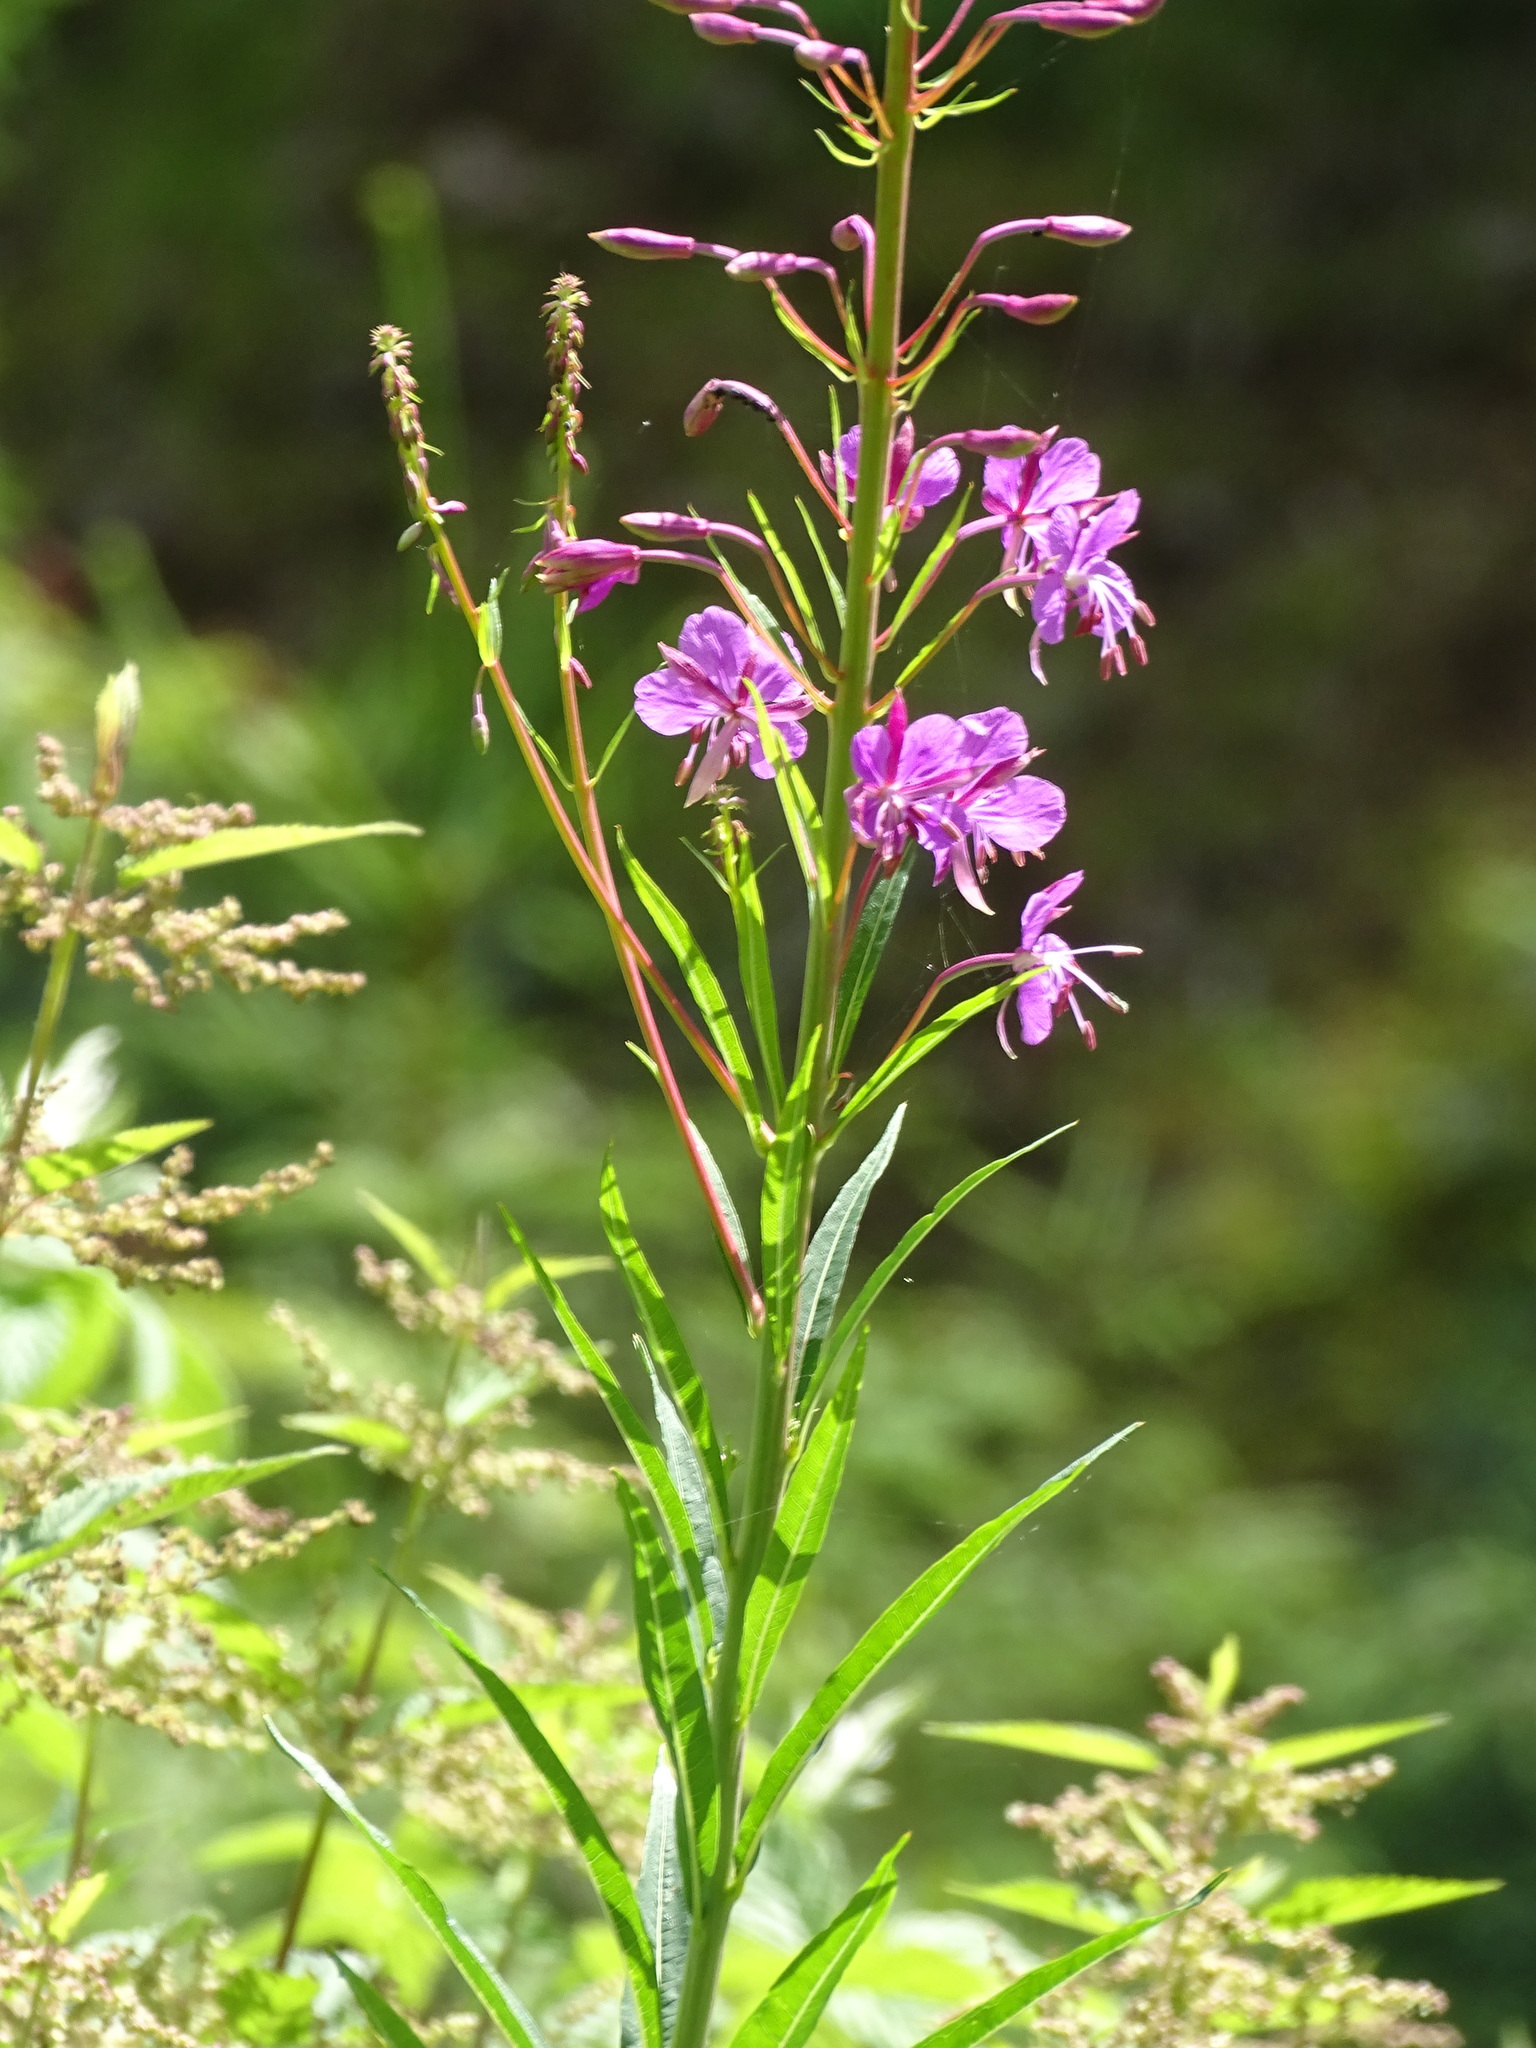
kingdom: Plantae
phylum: Tracheophyta
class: Magnoliopsida
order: Myrtales
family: Onagraceae
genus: Chamaenerion
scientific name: Chamaenerion angustifolium
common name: Fireweed
